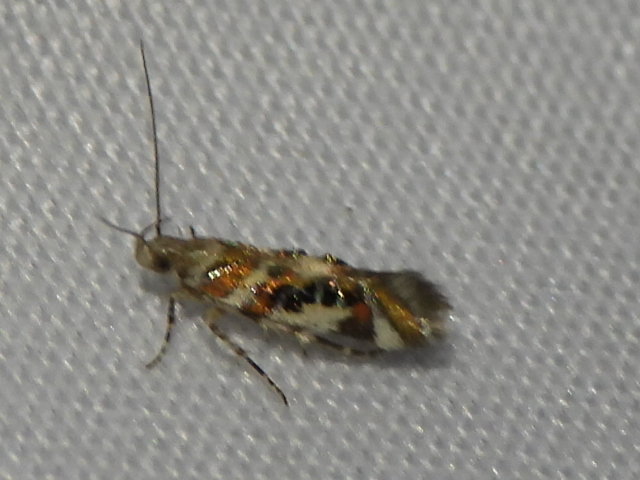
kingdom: Animalia
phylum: Arthropoda
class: Insecta
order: Lepidoptera
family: Gelechiidae
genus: Aristotelia
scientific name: Aristotelia elegantella
